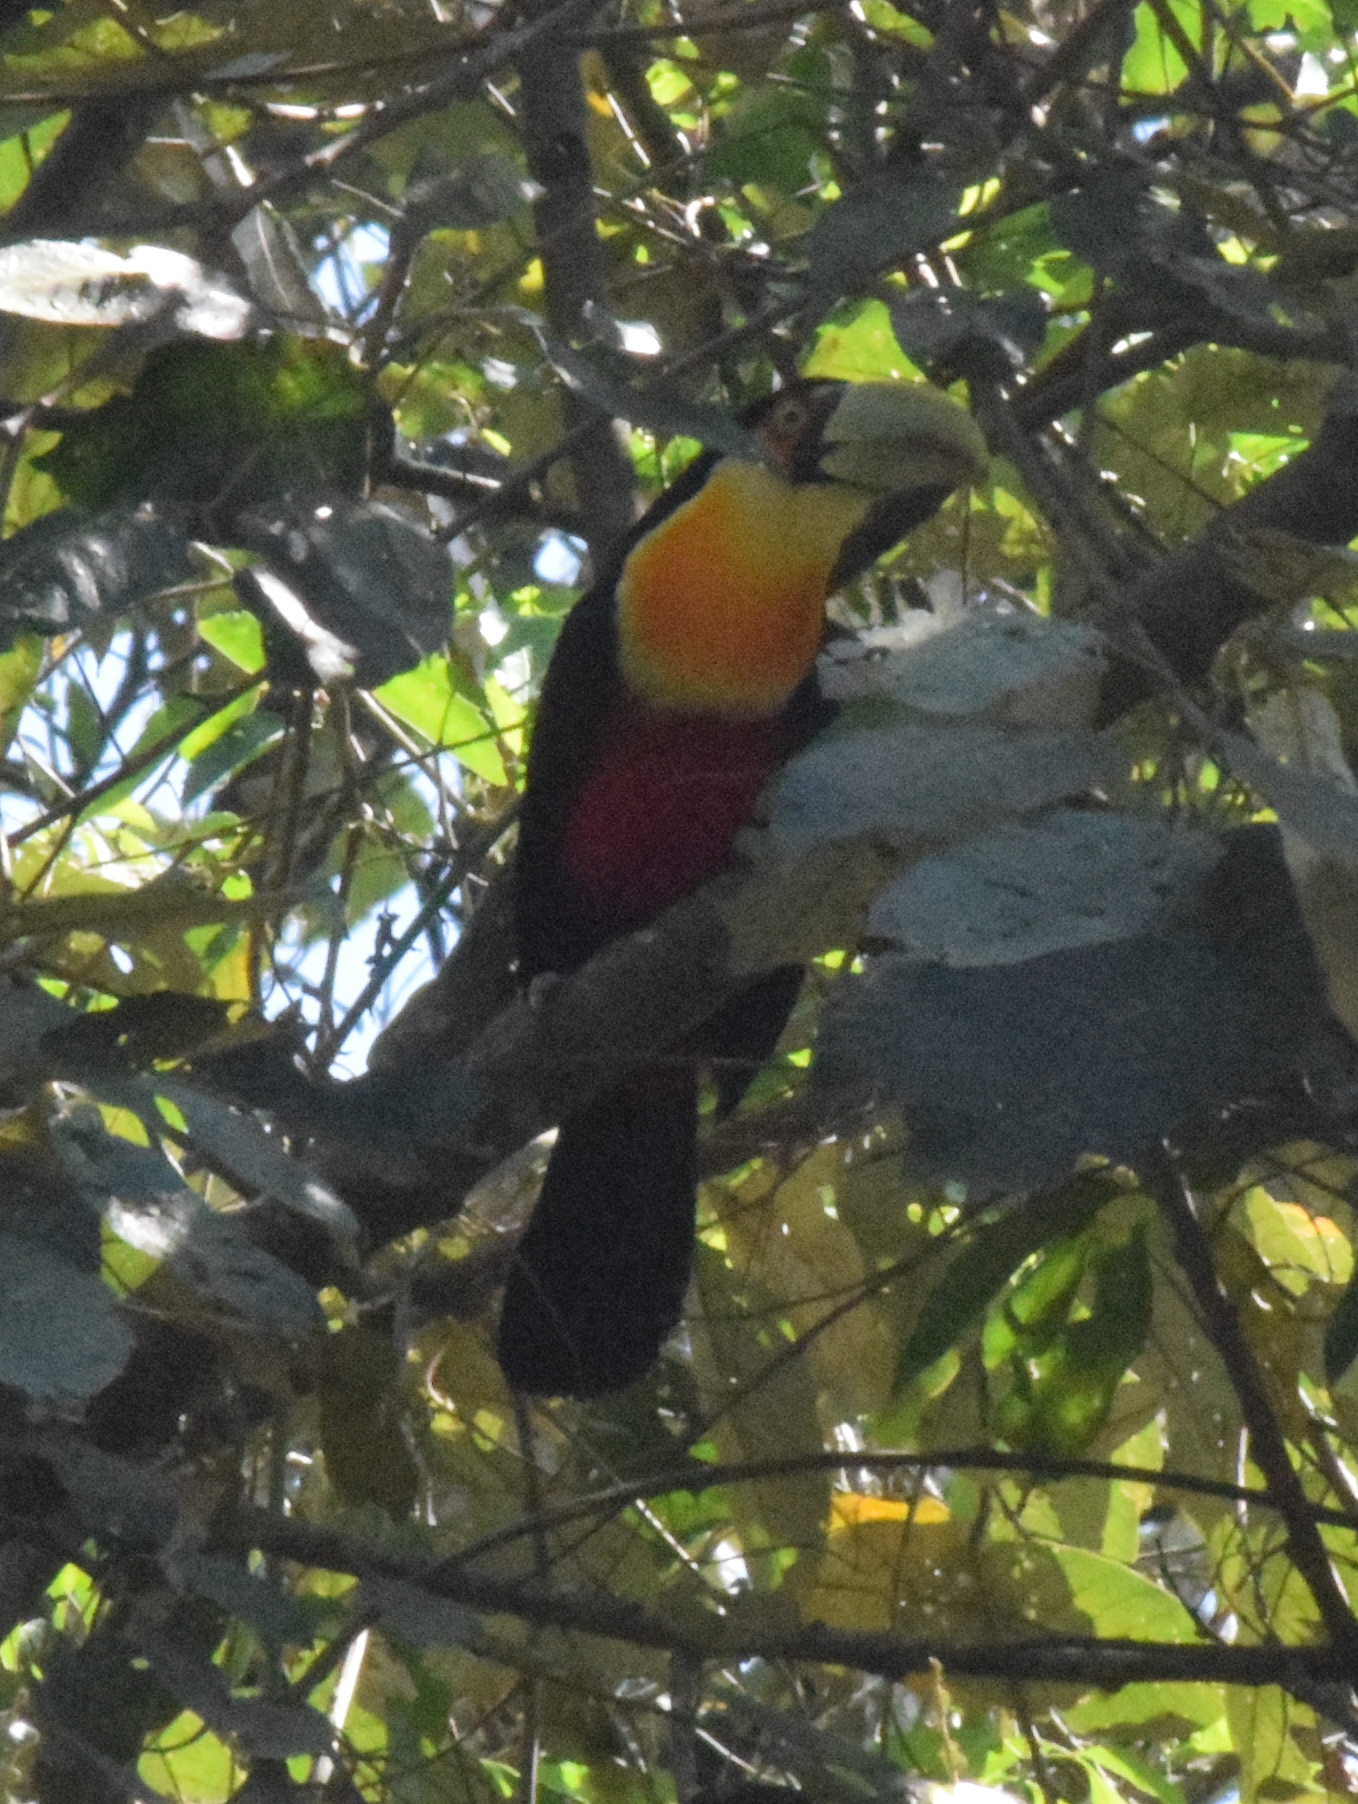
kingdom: Animalia
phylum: Chordata
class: Aves
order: Piciformes
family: Ramphastidae
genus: Ramphastos
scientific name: Ramphastos dicolorus
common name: Green-billed toucan
